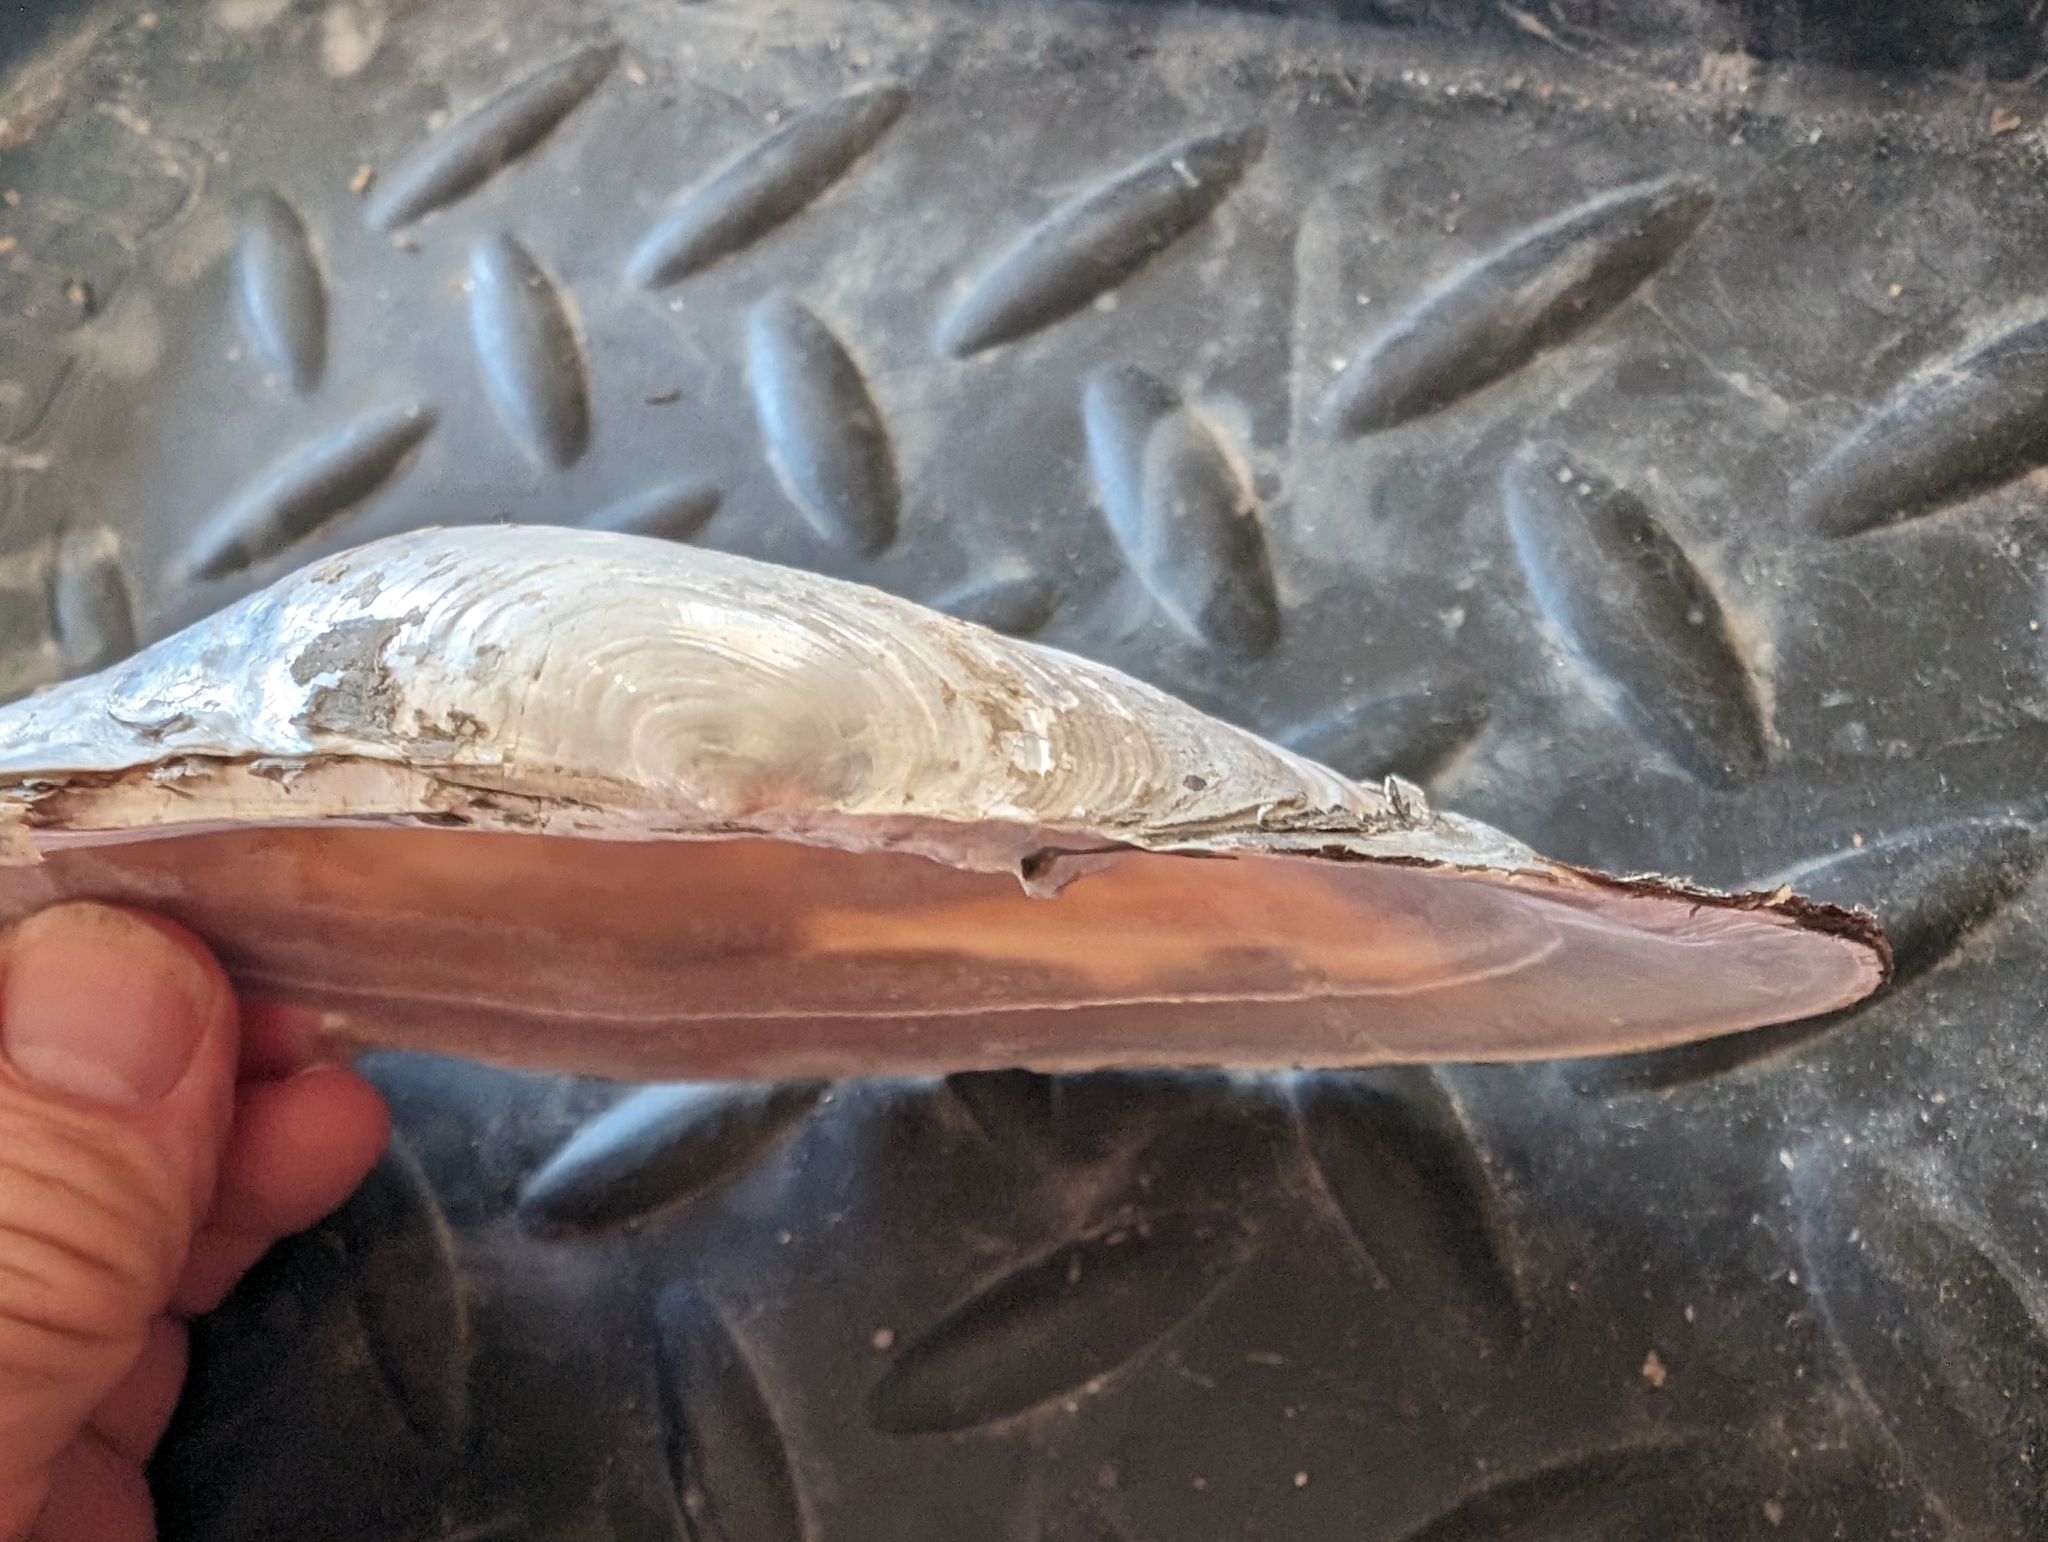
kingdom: Animalia
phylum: Mollusca
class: Bivalvia
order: Unionida
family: Unionidae
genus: Potamilus
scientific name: Potamilus ohiensis
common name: Pink papershell
